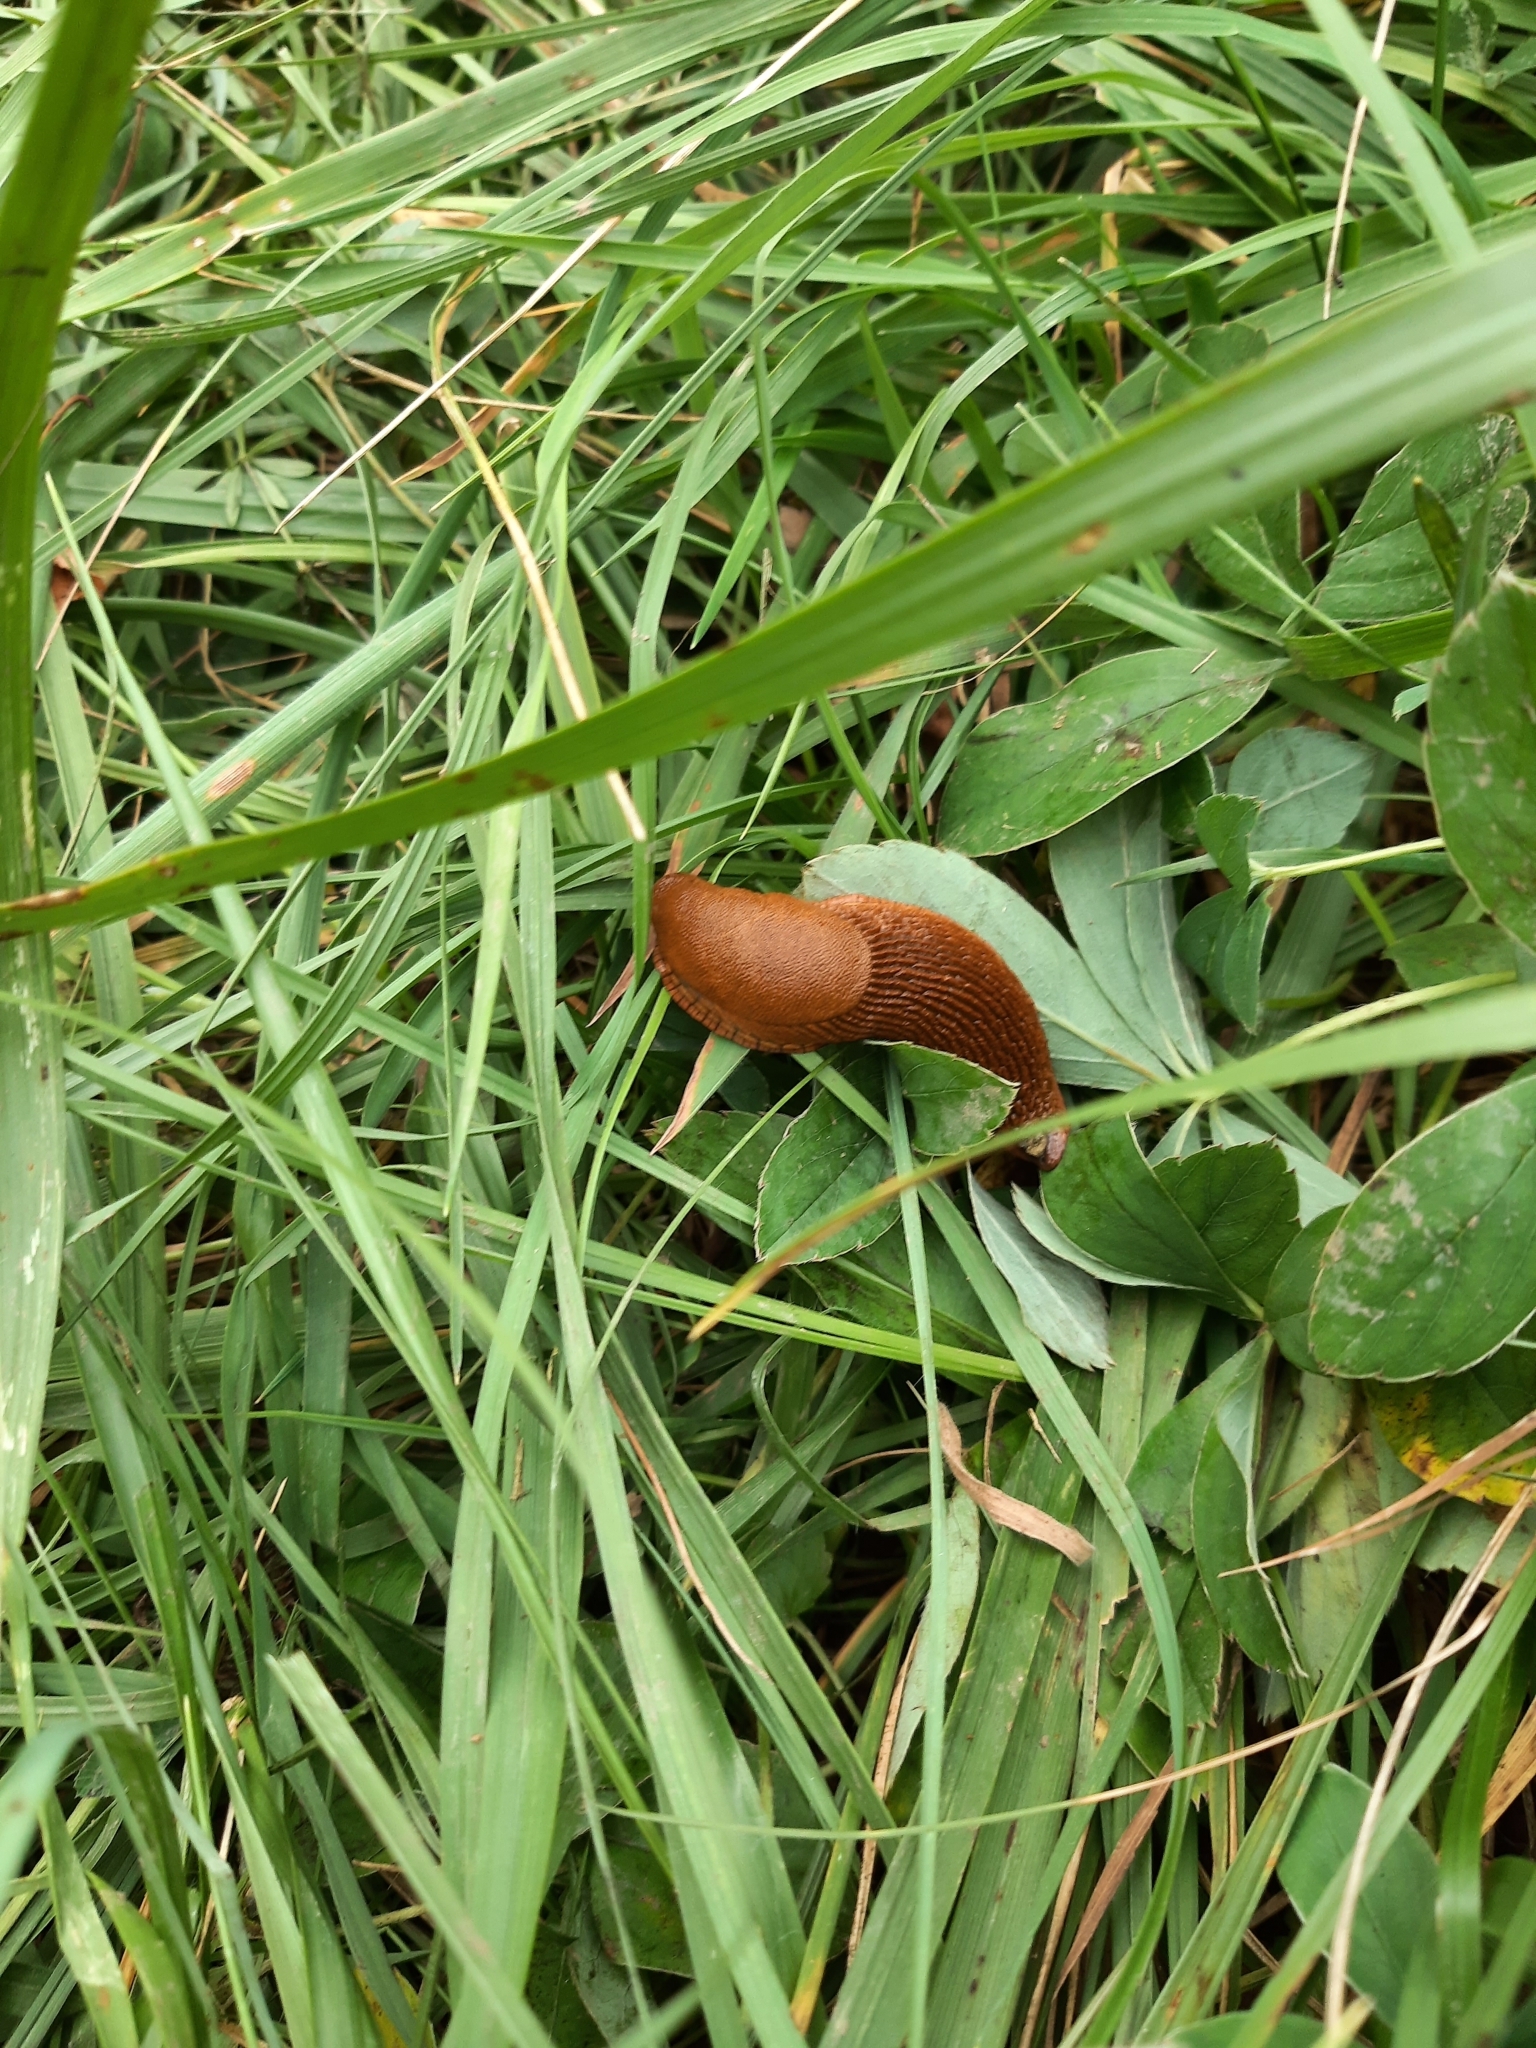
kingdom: Animalia
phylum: Mollusca
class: Gastropoda
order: Stylommatophora
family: Arionidae
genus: Arion
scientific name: Arion
